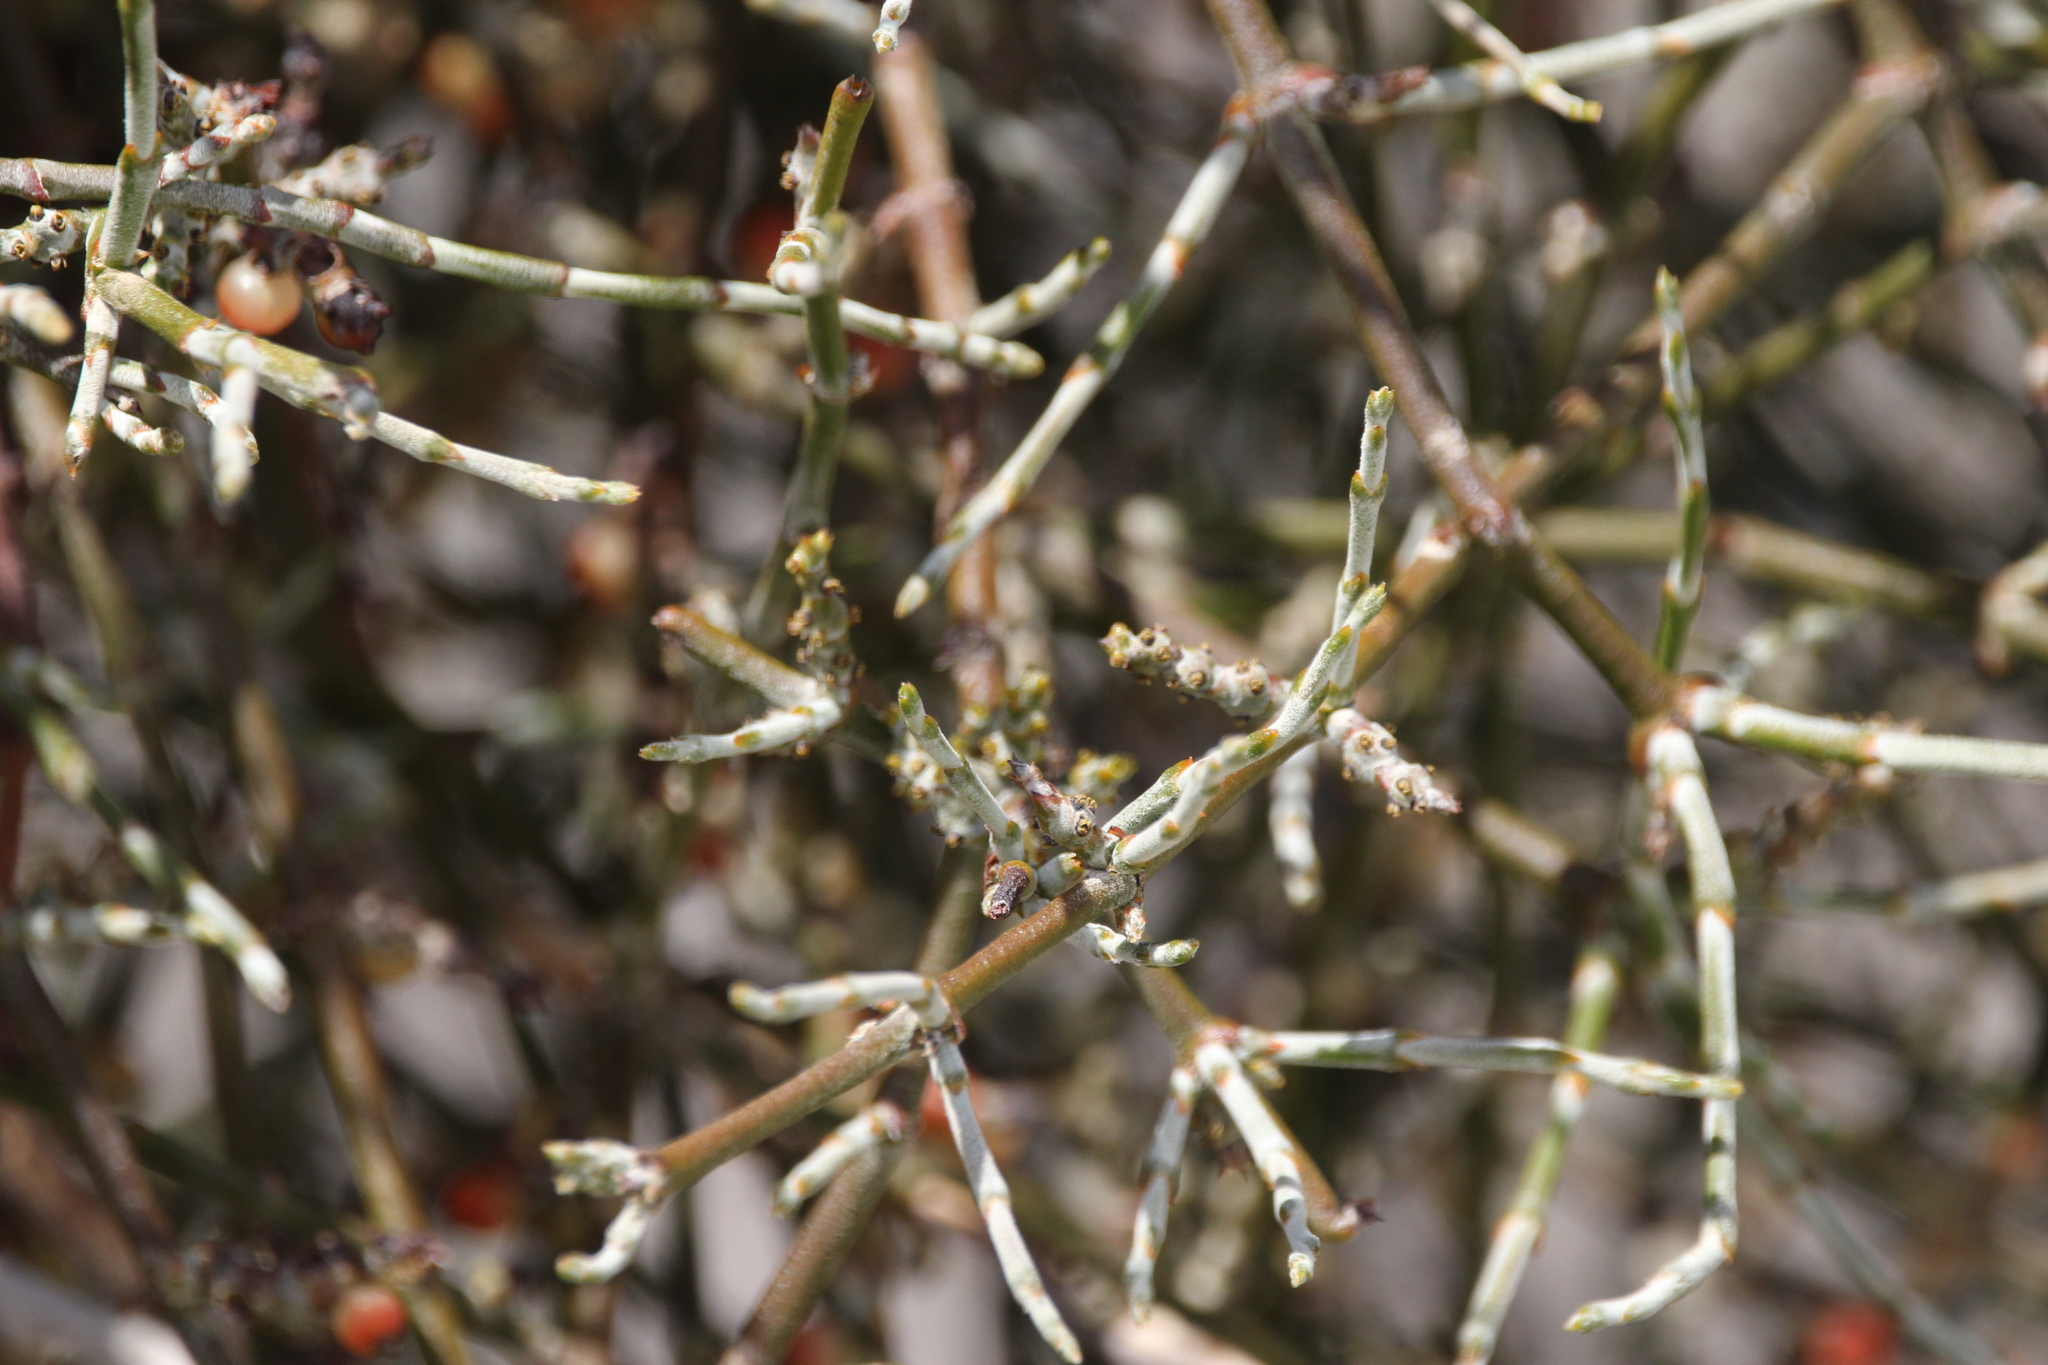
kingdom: Plantae
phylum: Tracheophyta
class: Magnoliopsida
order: Santalales
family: Viscaceae
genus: Phoradendron
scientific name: Phoradendron californicum
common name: Acacia mistletoe
